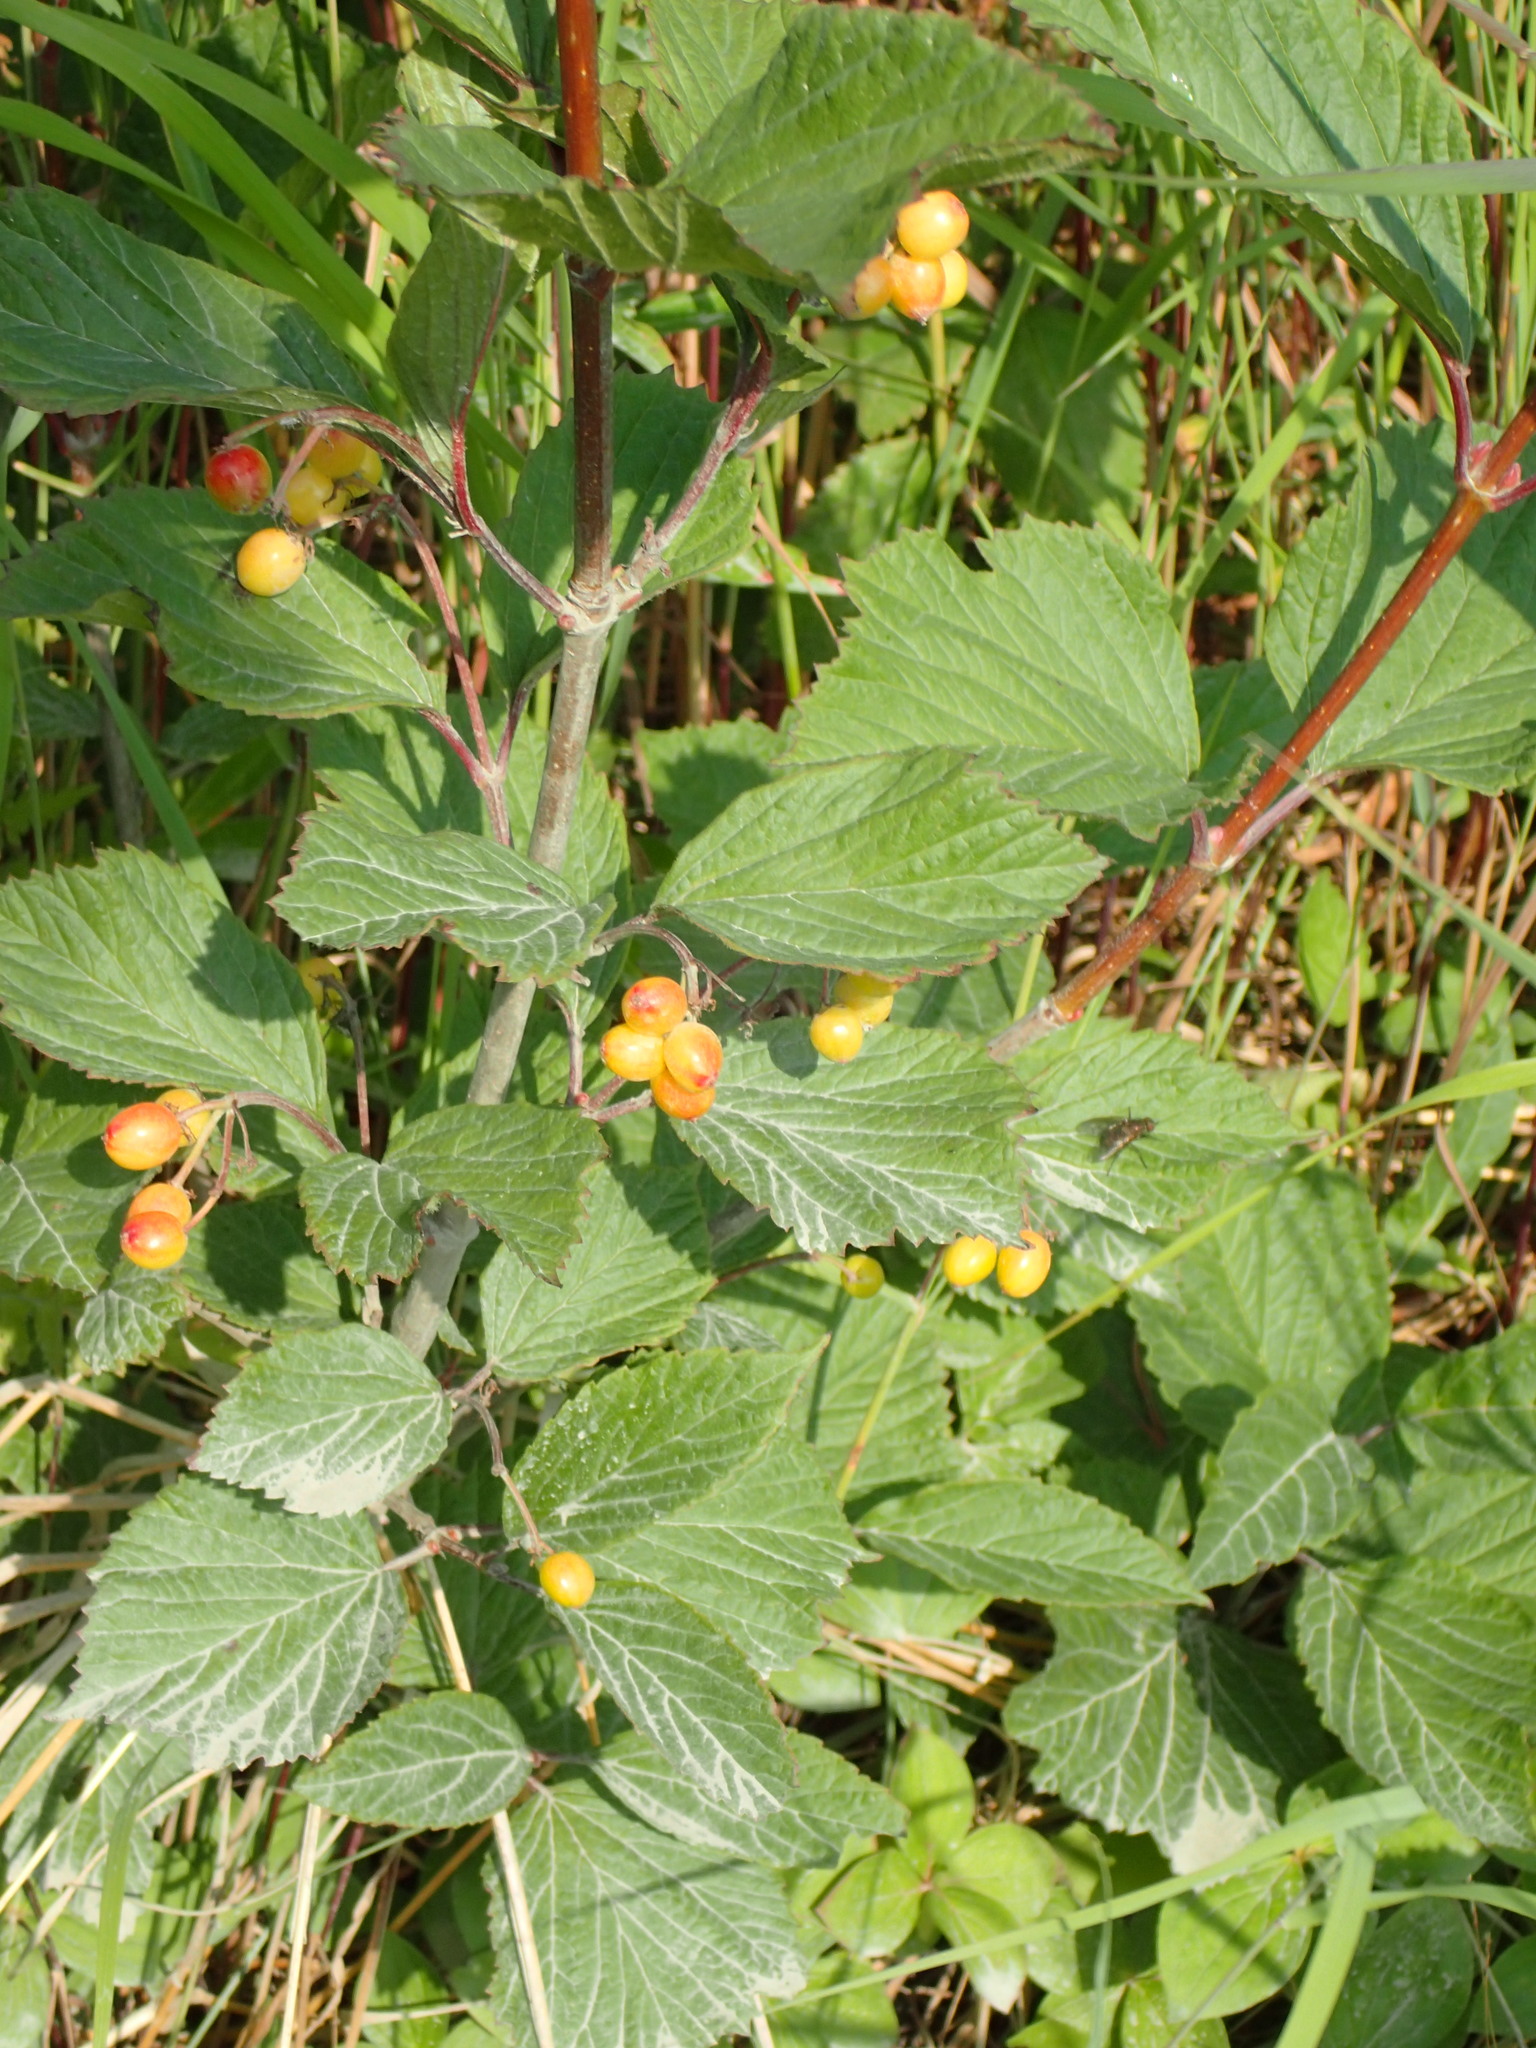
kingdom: Plantae
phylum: Tracheophyta
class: Magnoliopsida
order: Dipsacales
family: Viburnaceae
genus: Viburnum
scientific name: Viburnum edule
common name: Mooseberry
